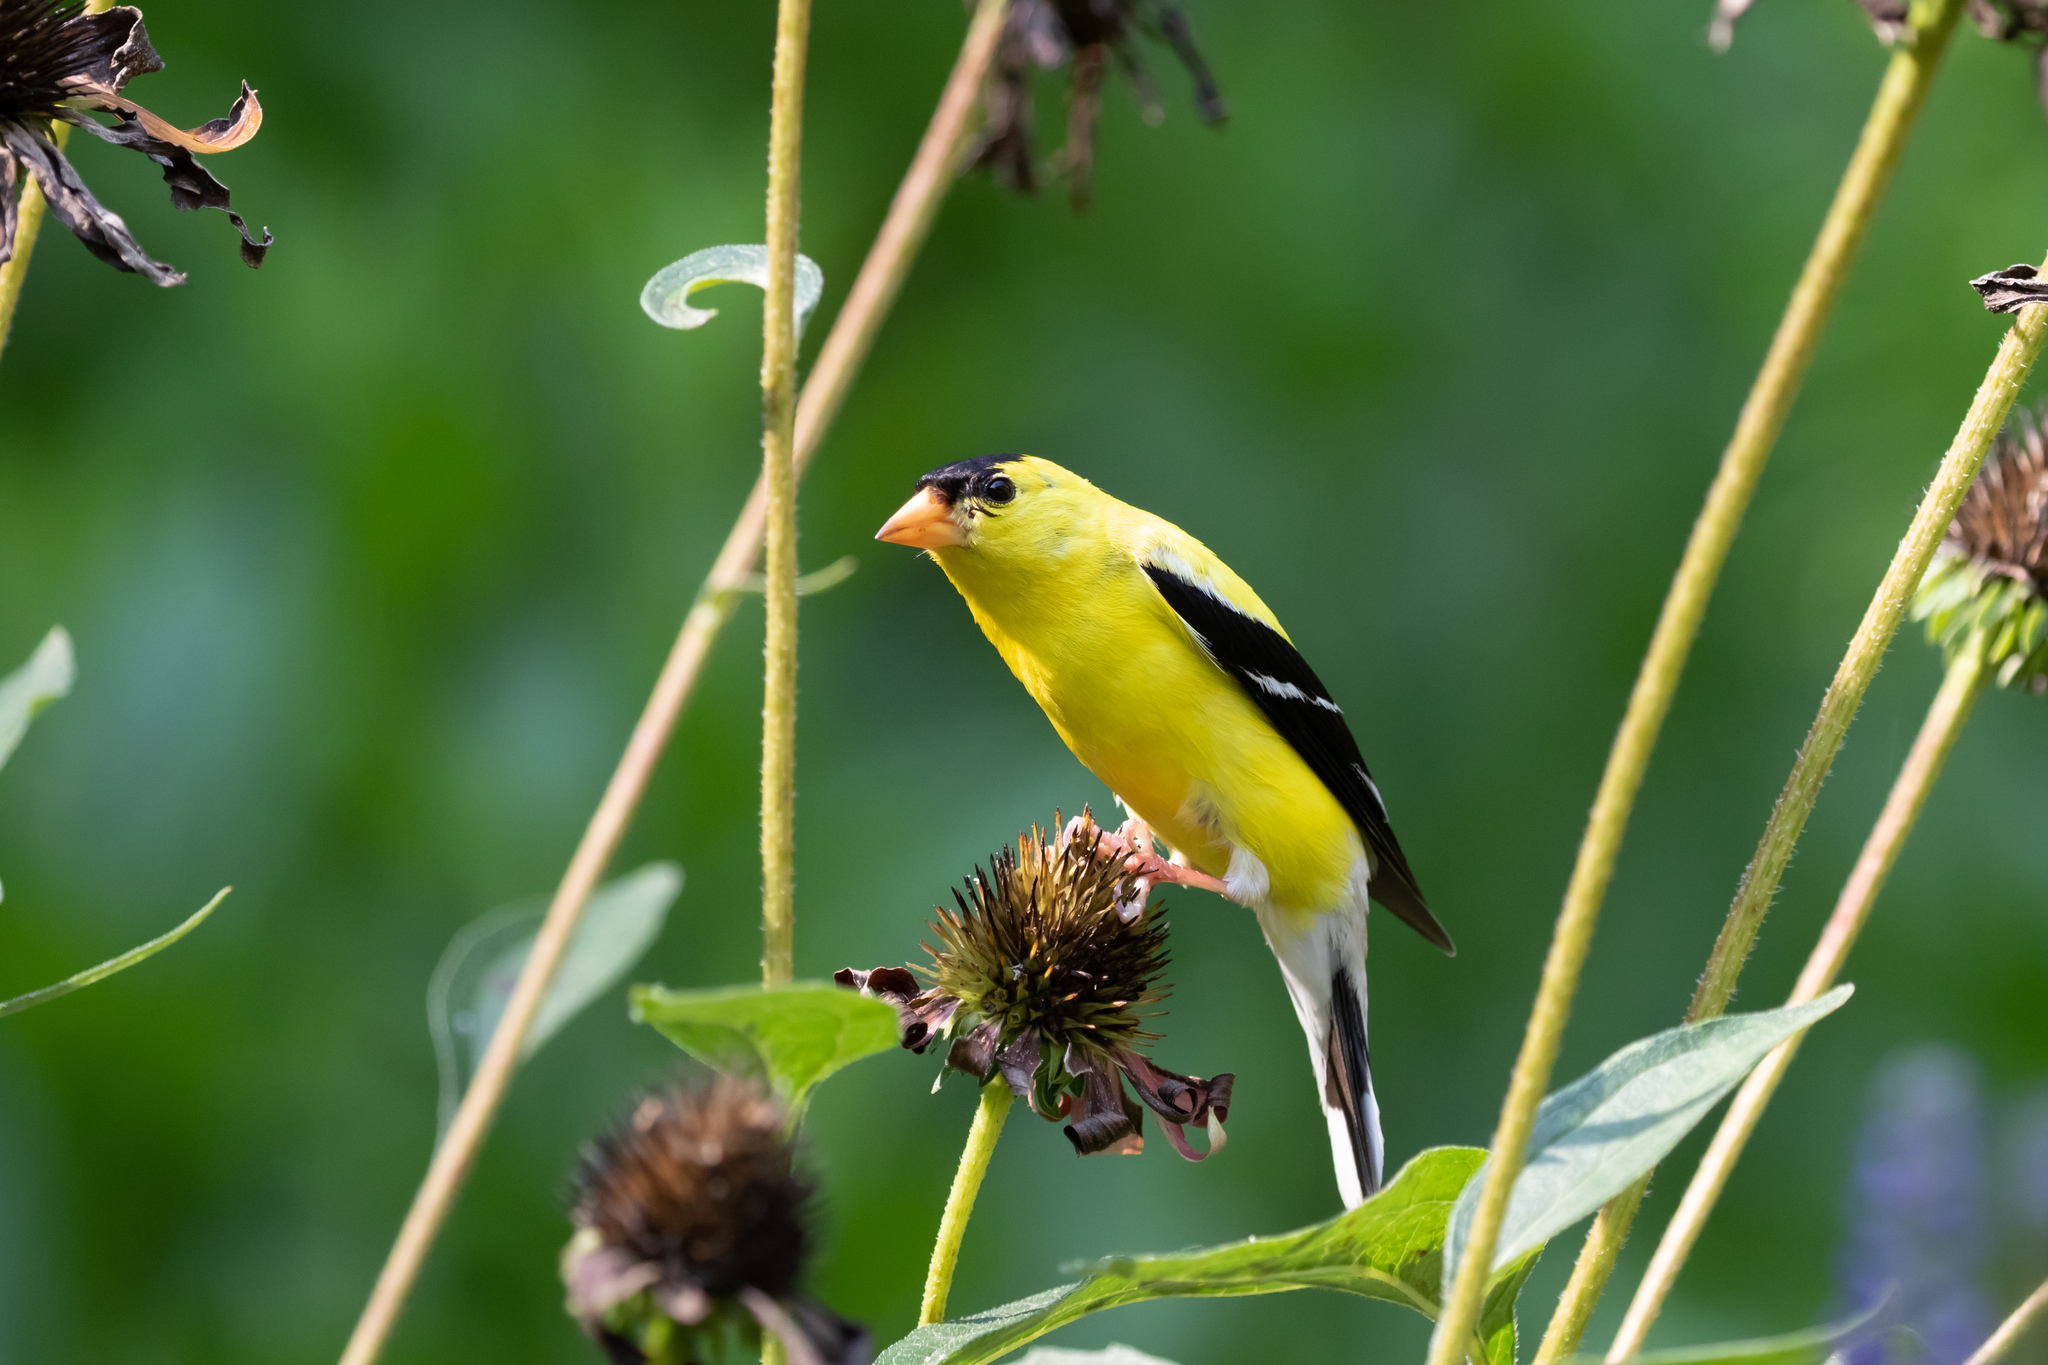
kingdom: Animalia
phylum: Chordata
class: Aves
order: Passeriformes
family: Fringillidae
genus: Spinus
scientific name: Spinus tristis
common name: American goldfinch
